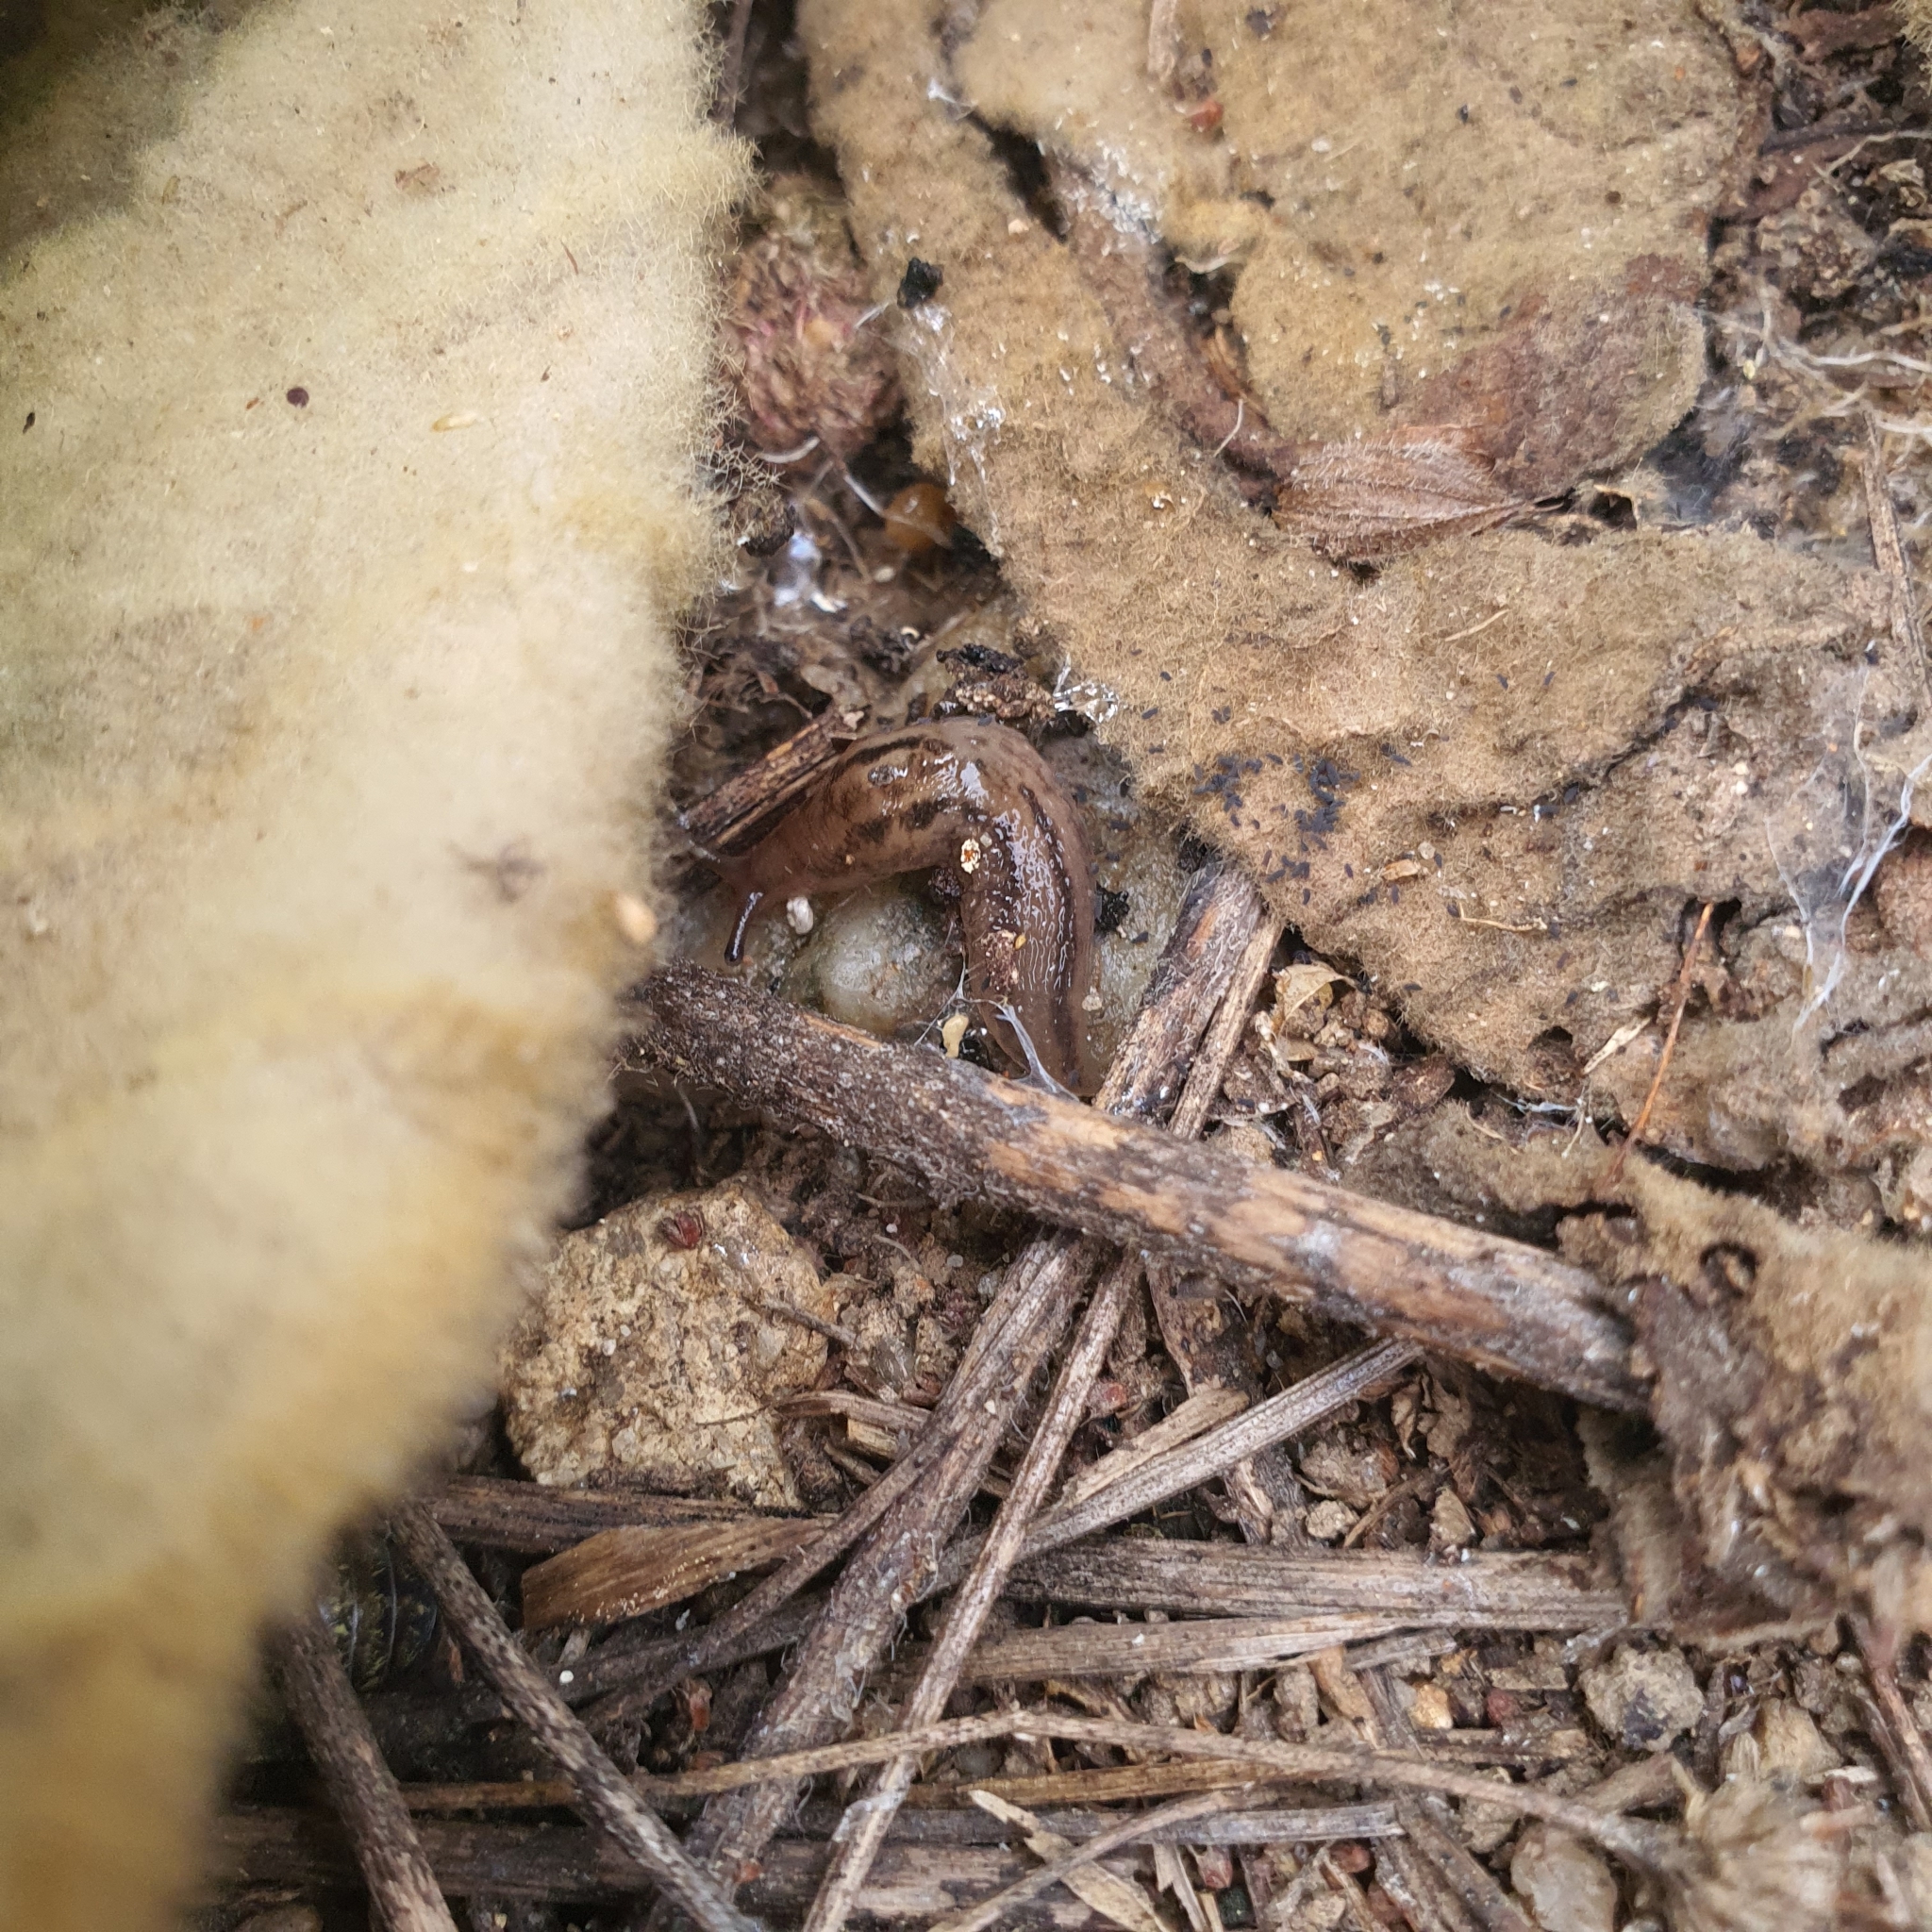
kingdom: Animalia
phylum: Mollusca
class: Gastropoda
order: Stylommatophora
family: Limacidae
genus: Ambigolimax
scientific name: Ambigolimax
